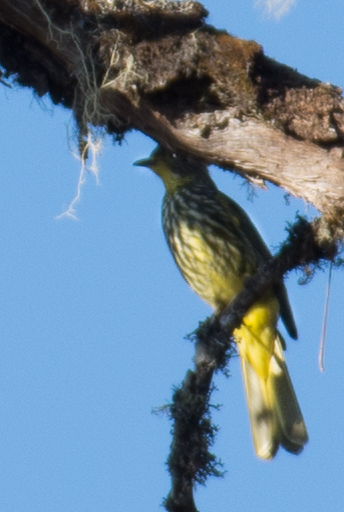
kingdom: Animalia
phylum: Chordata
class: Aves
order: Passeriformes
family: Pycnonotidae
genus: Pycnonotus
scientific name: Pycnonotus striatus
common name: Striated bulbul
